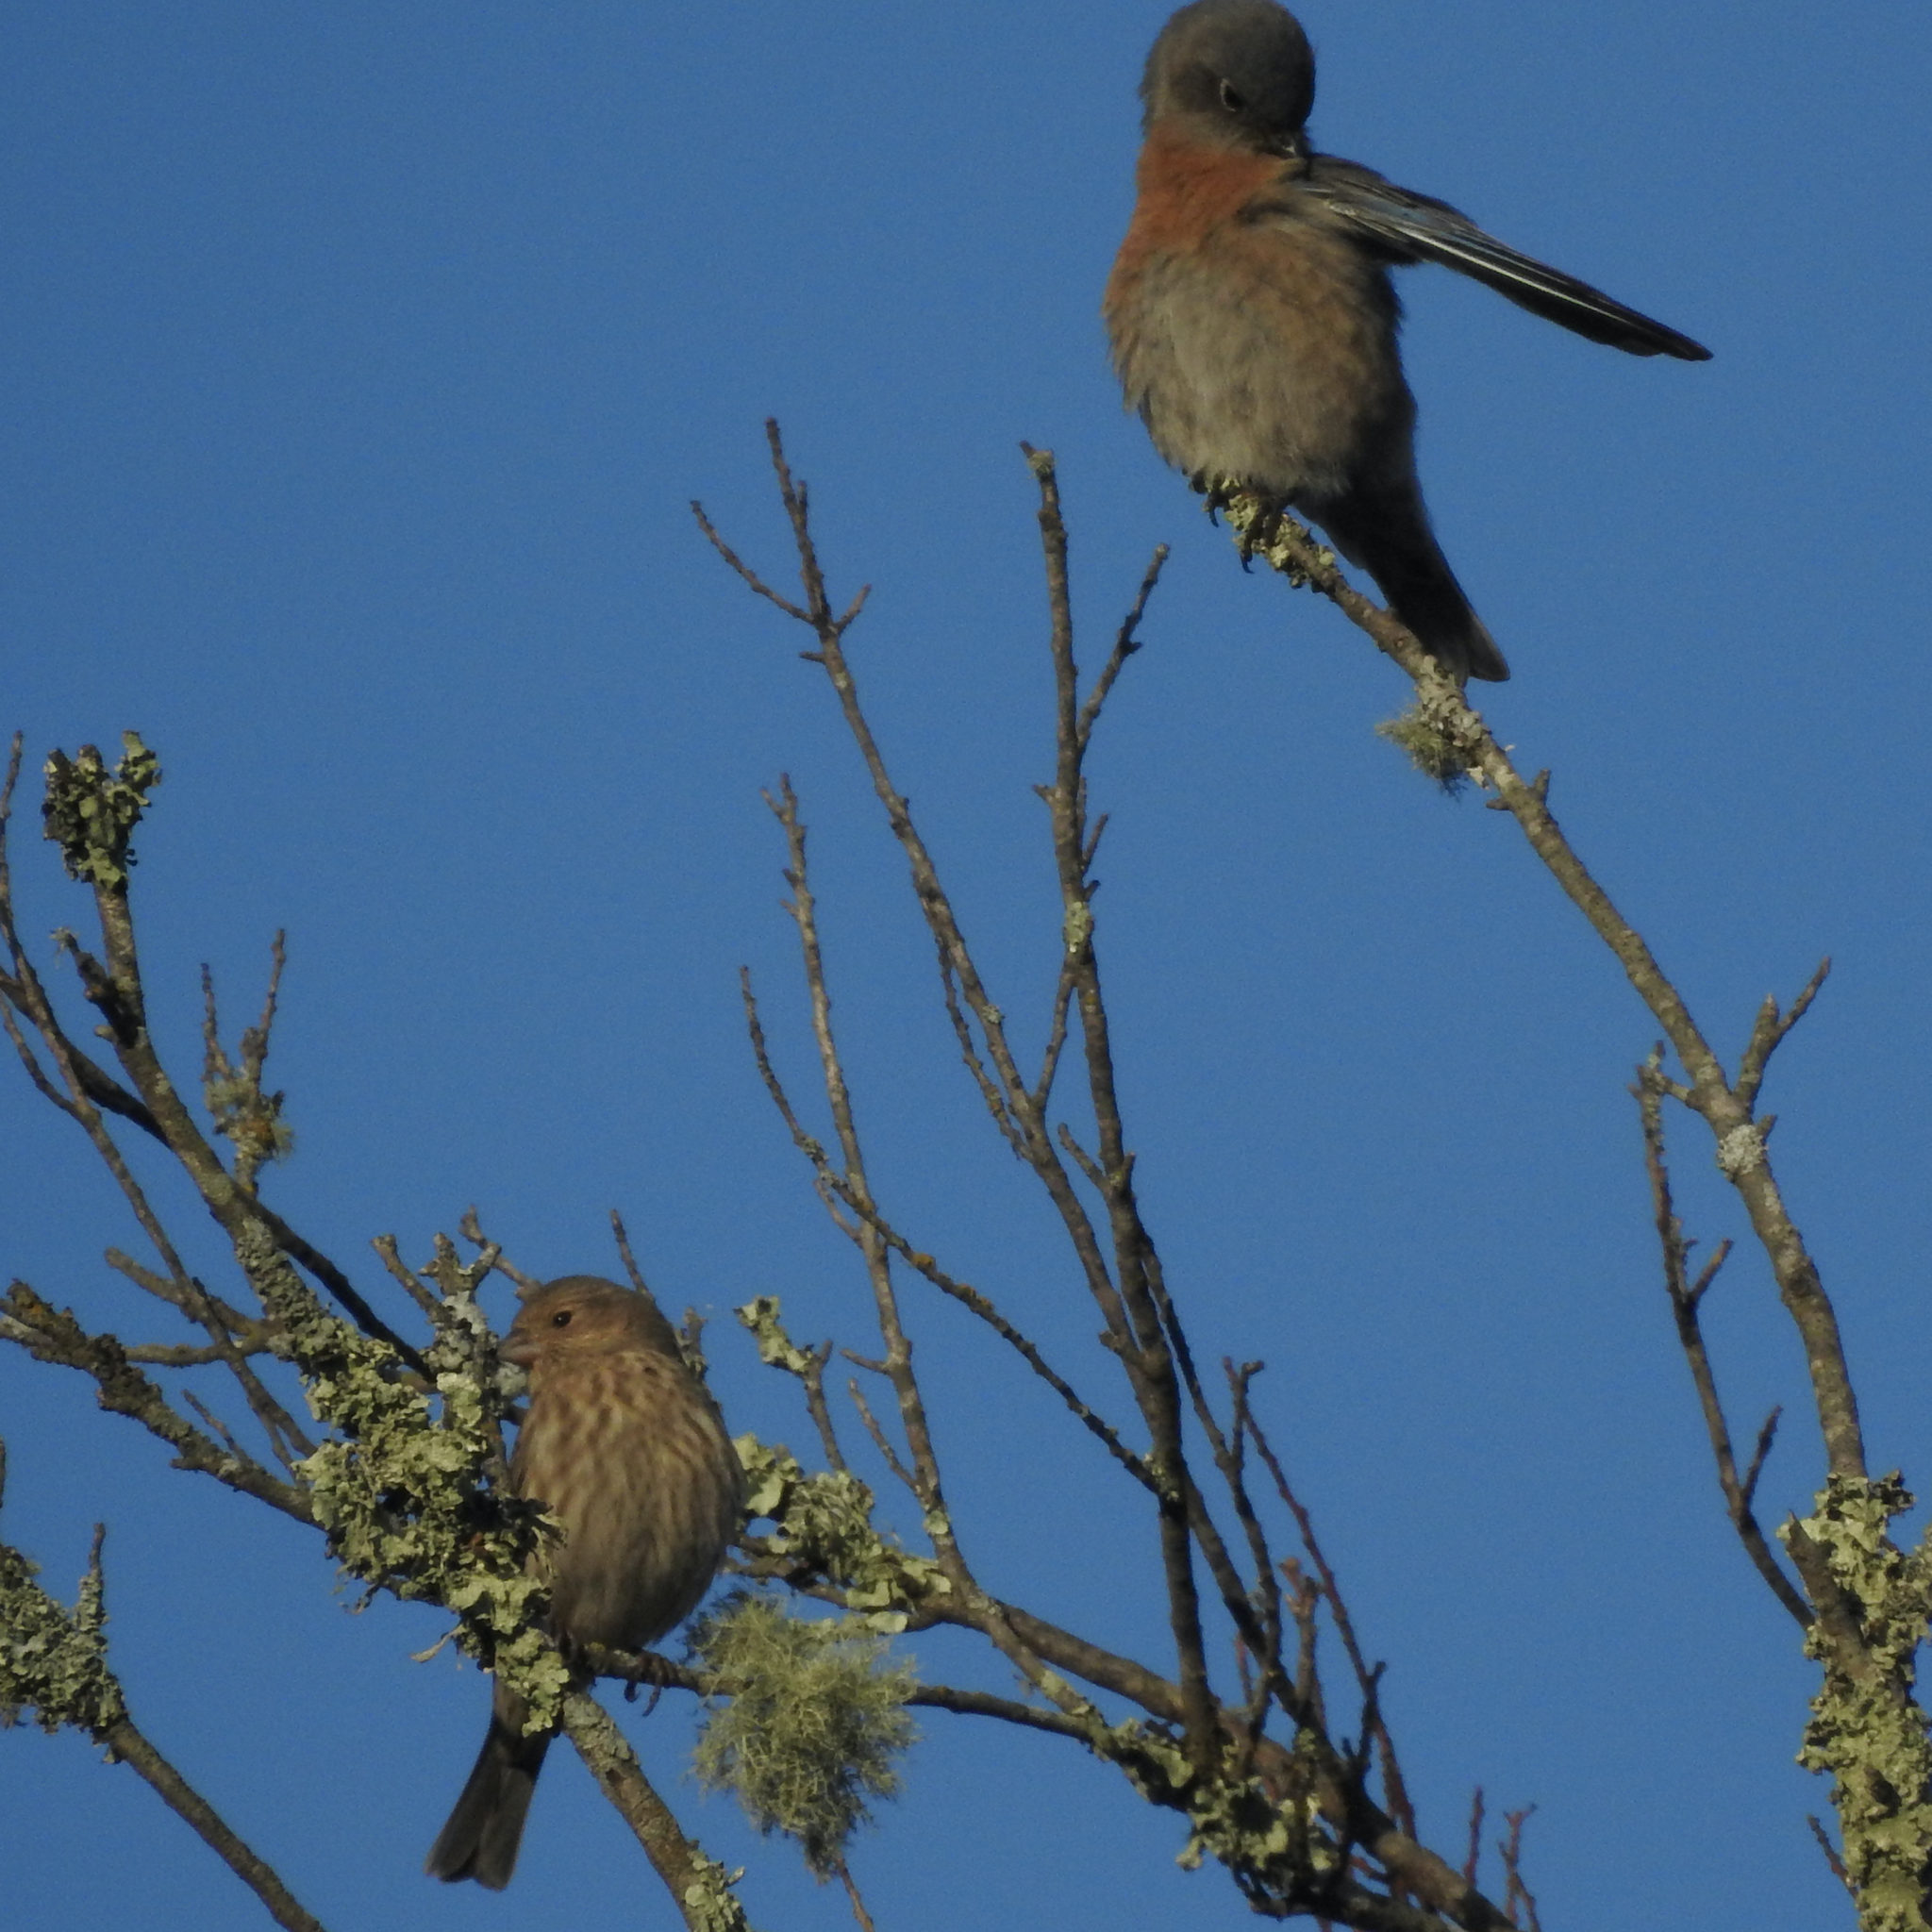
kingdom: Animalia
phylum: Chordata
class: Aves
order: Passeriformes
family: Turdidae
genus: Sialia
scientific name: Sialia mexicana
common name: Western bluebird
